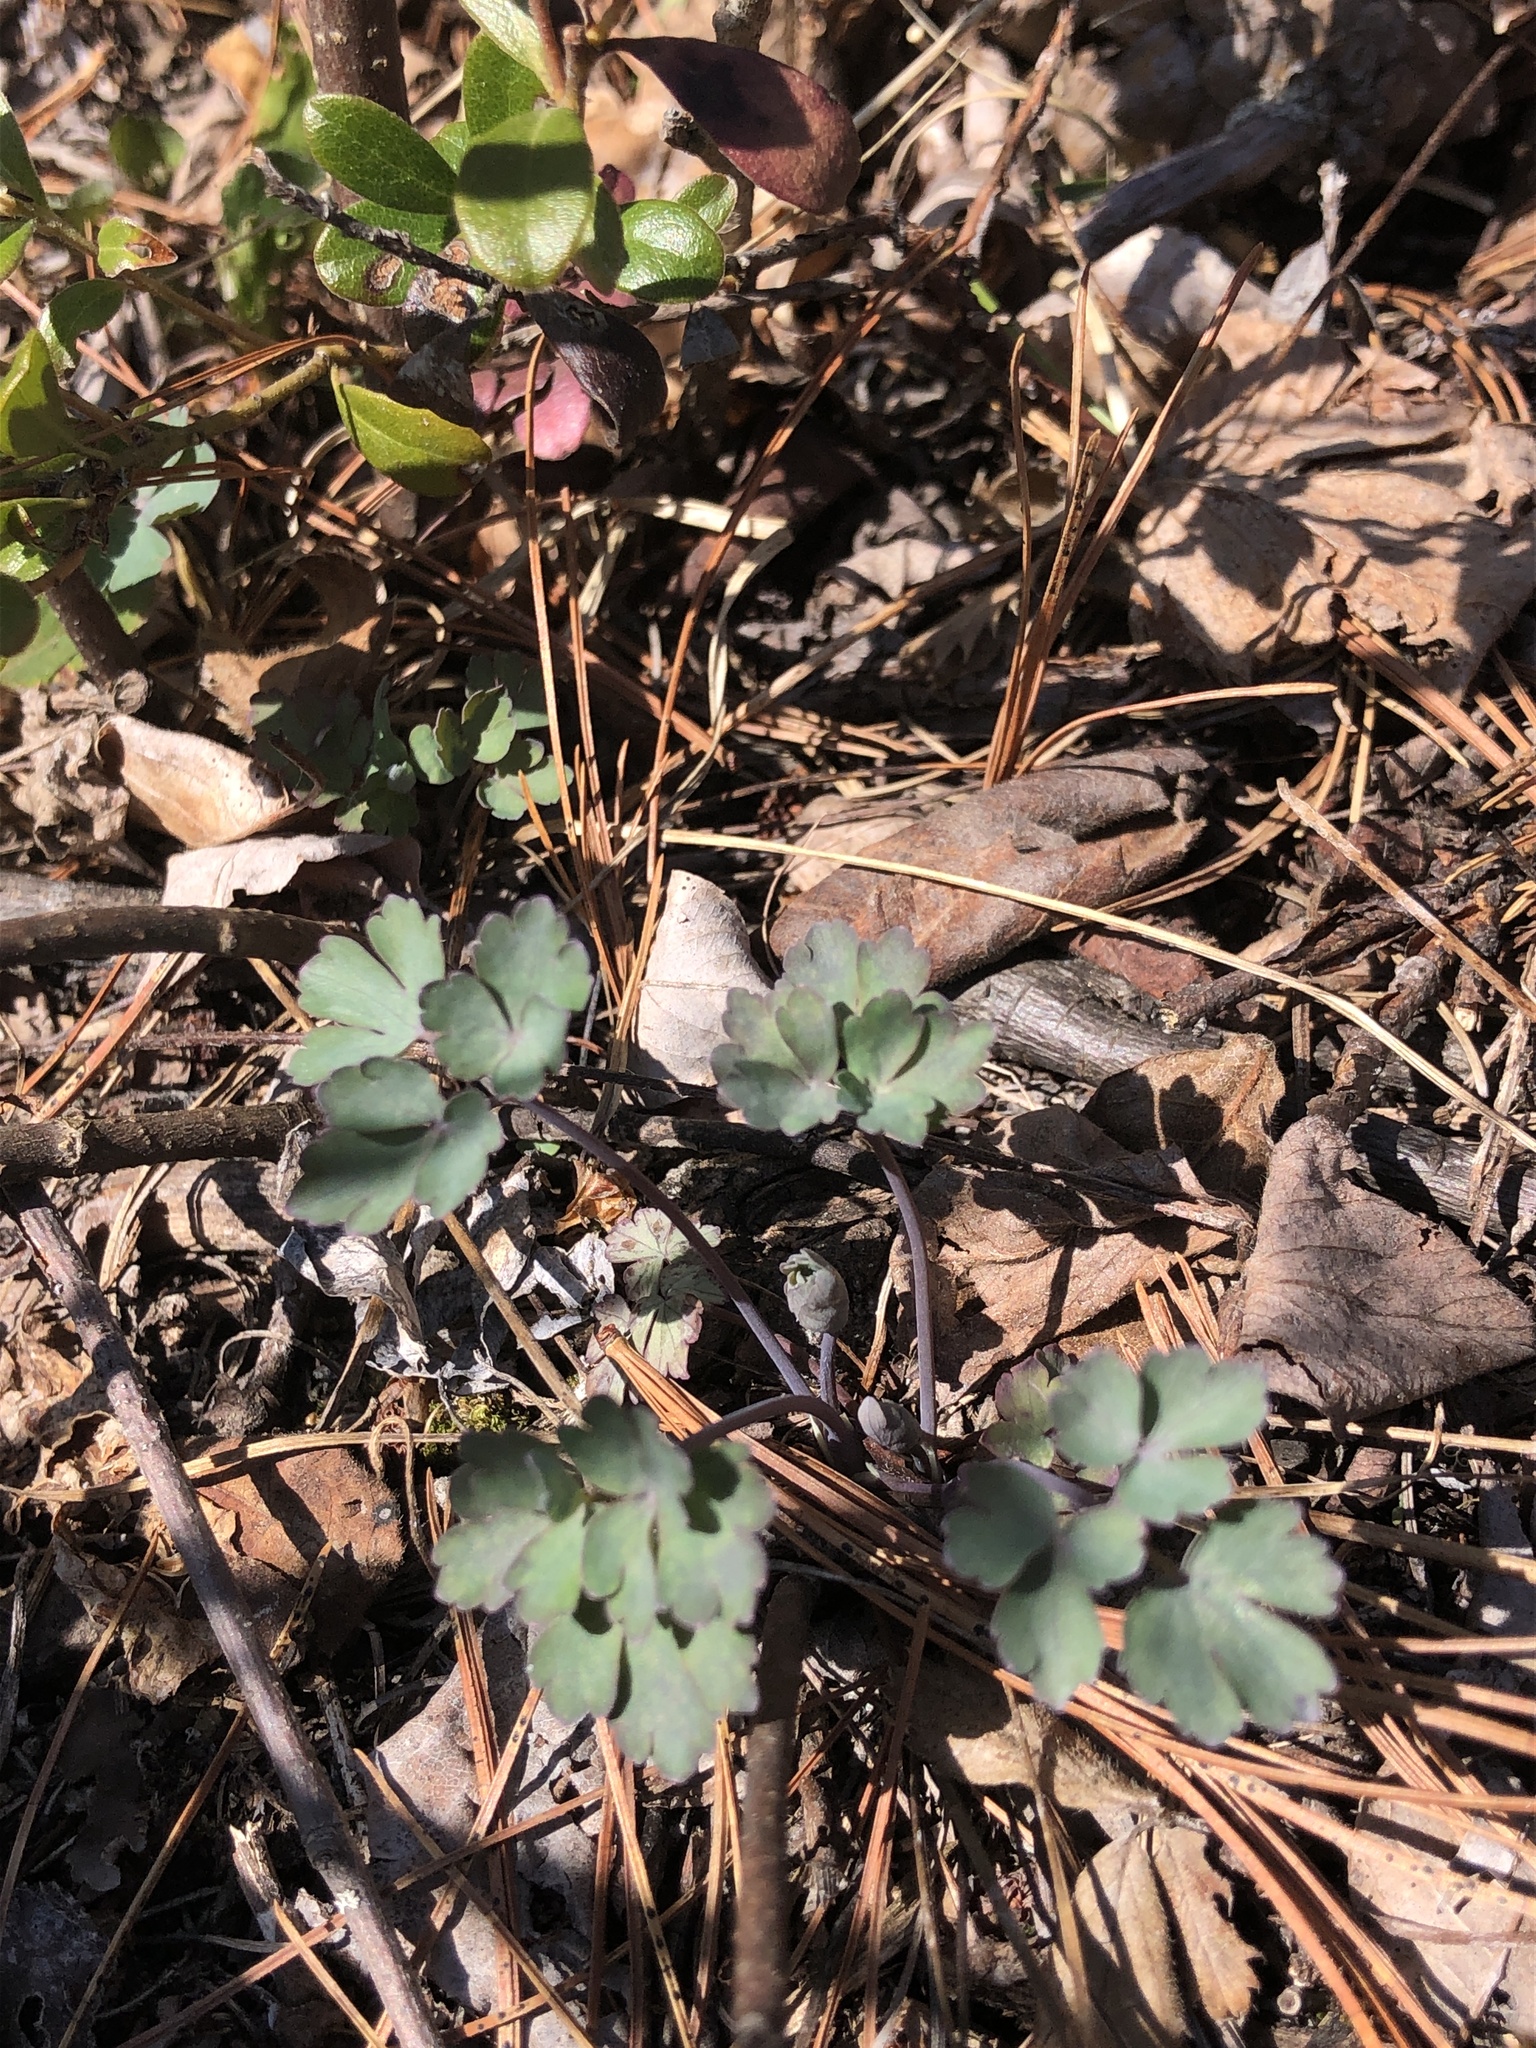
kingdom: Plantae
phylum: Tracheophyta
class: Magnoliopsida
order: Ranunculales
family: Ranunculaceae
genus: Aquilegia
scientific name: Aquilegia canadensis
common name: American columbine
